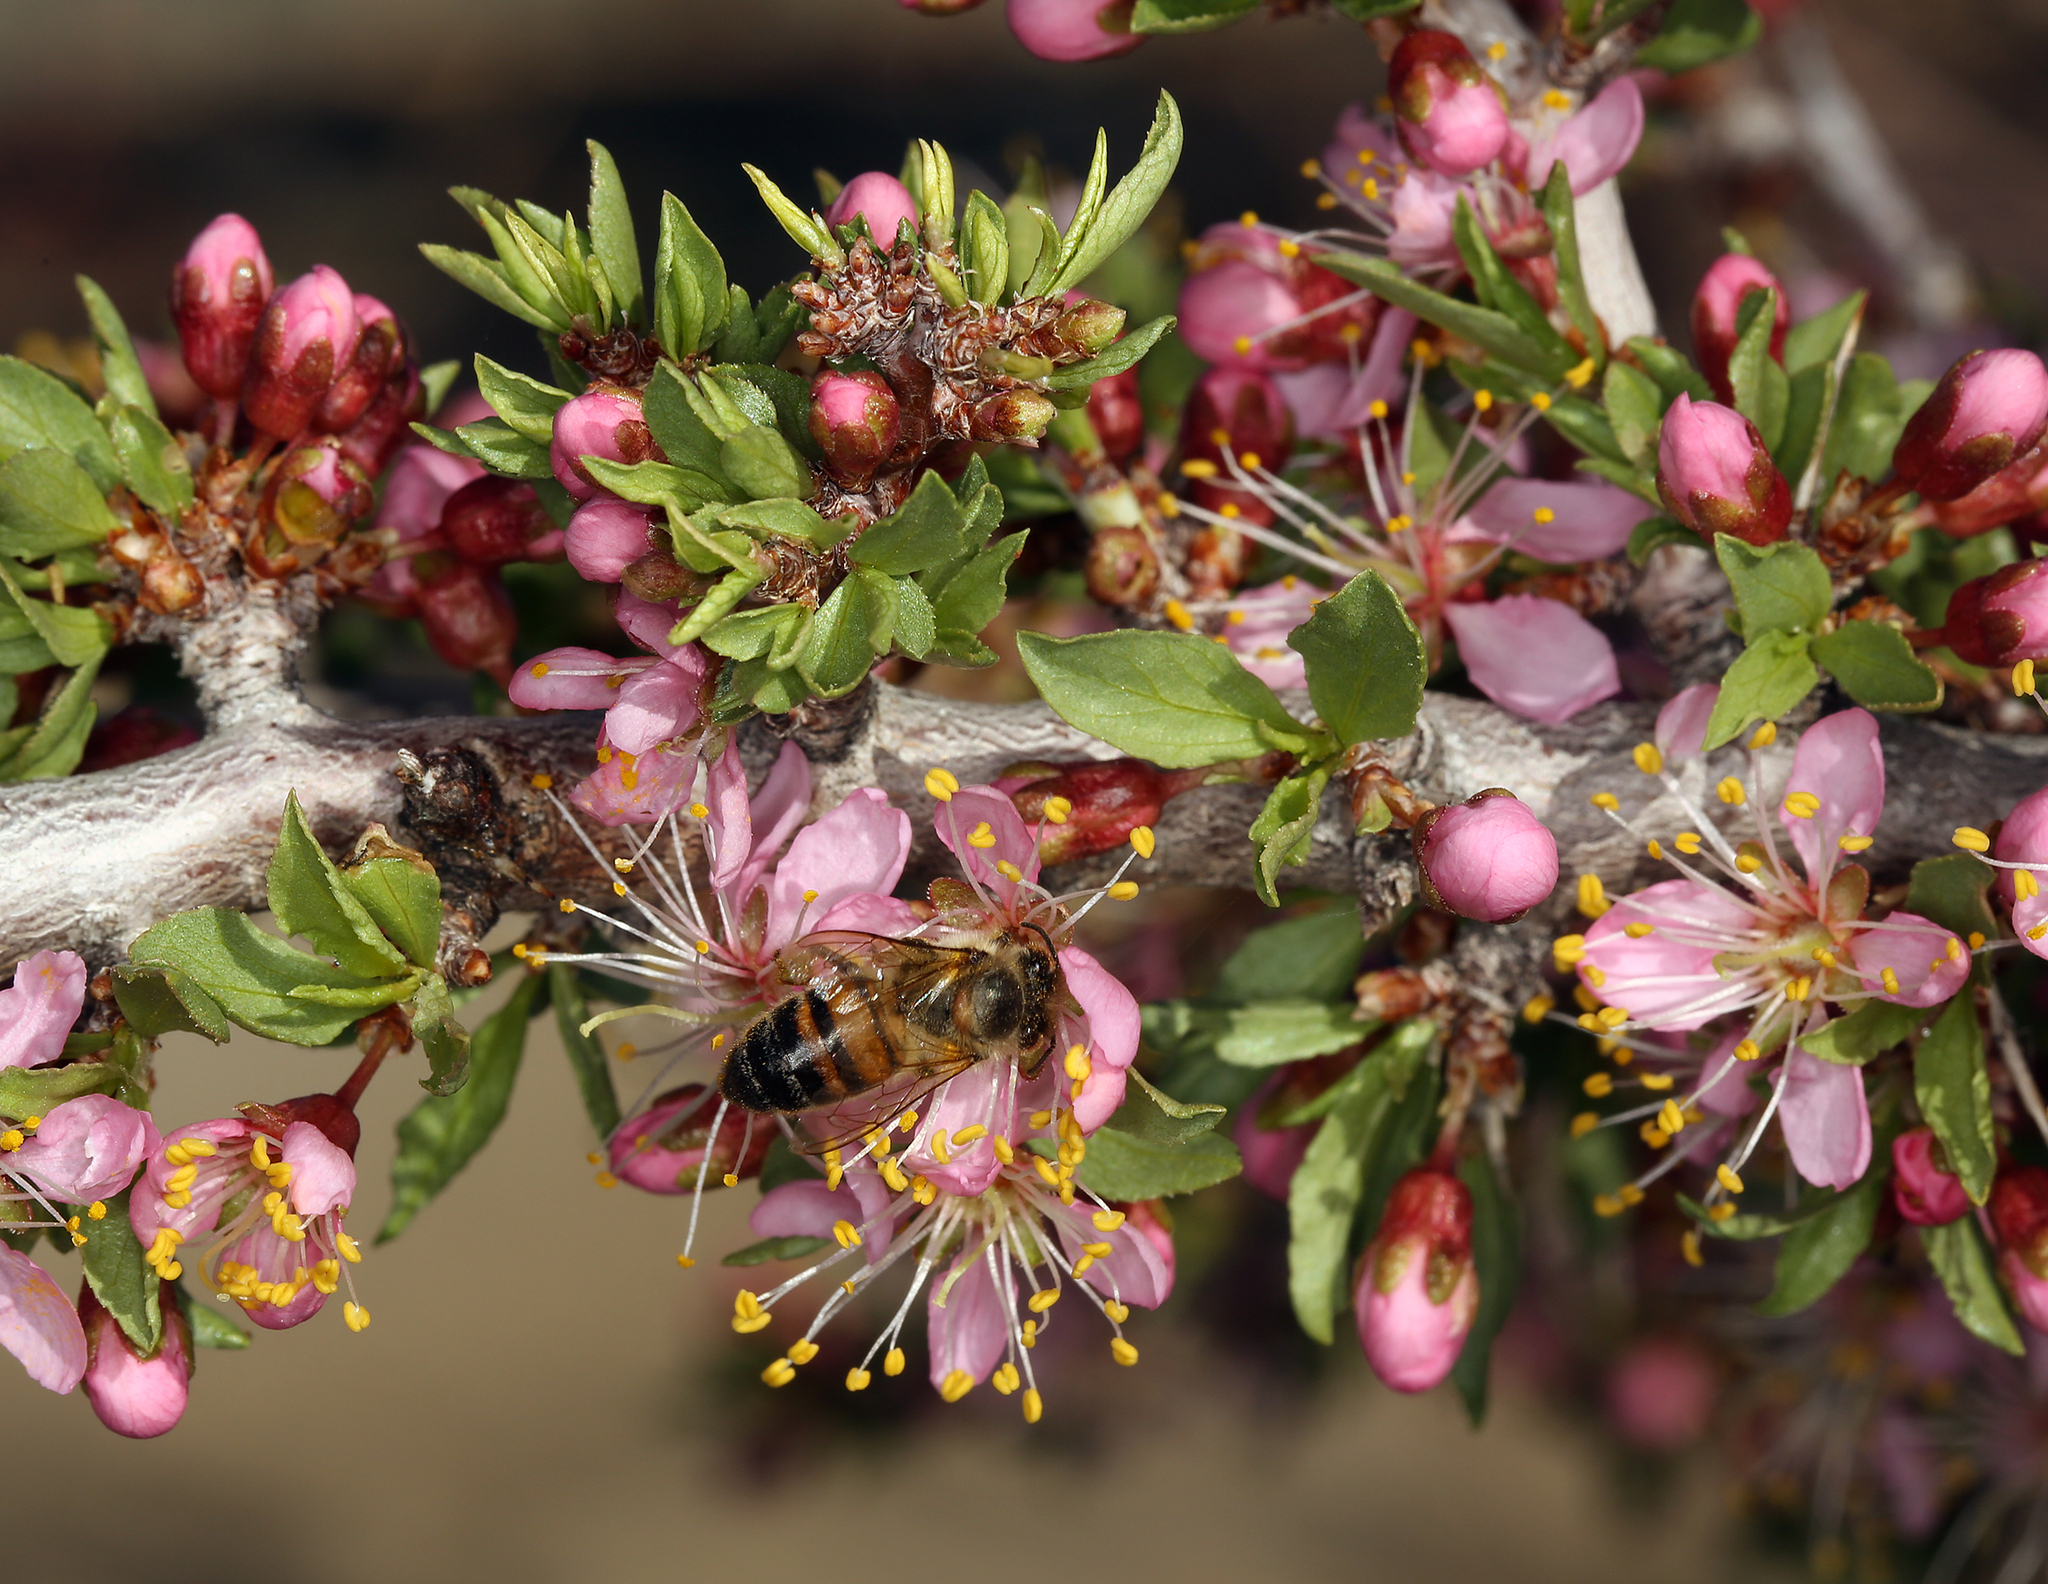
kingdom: Plantae
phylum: Tracheophyta
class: Magnoliopsida
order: Rosales
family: Rosaceae
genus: Prunus
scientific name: Prunus andersonii
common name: Desert peach
